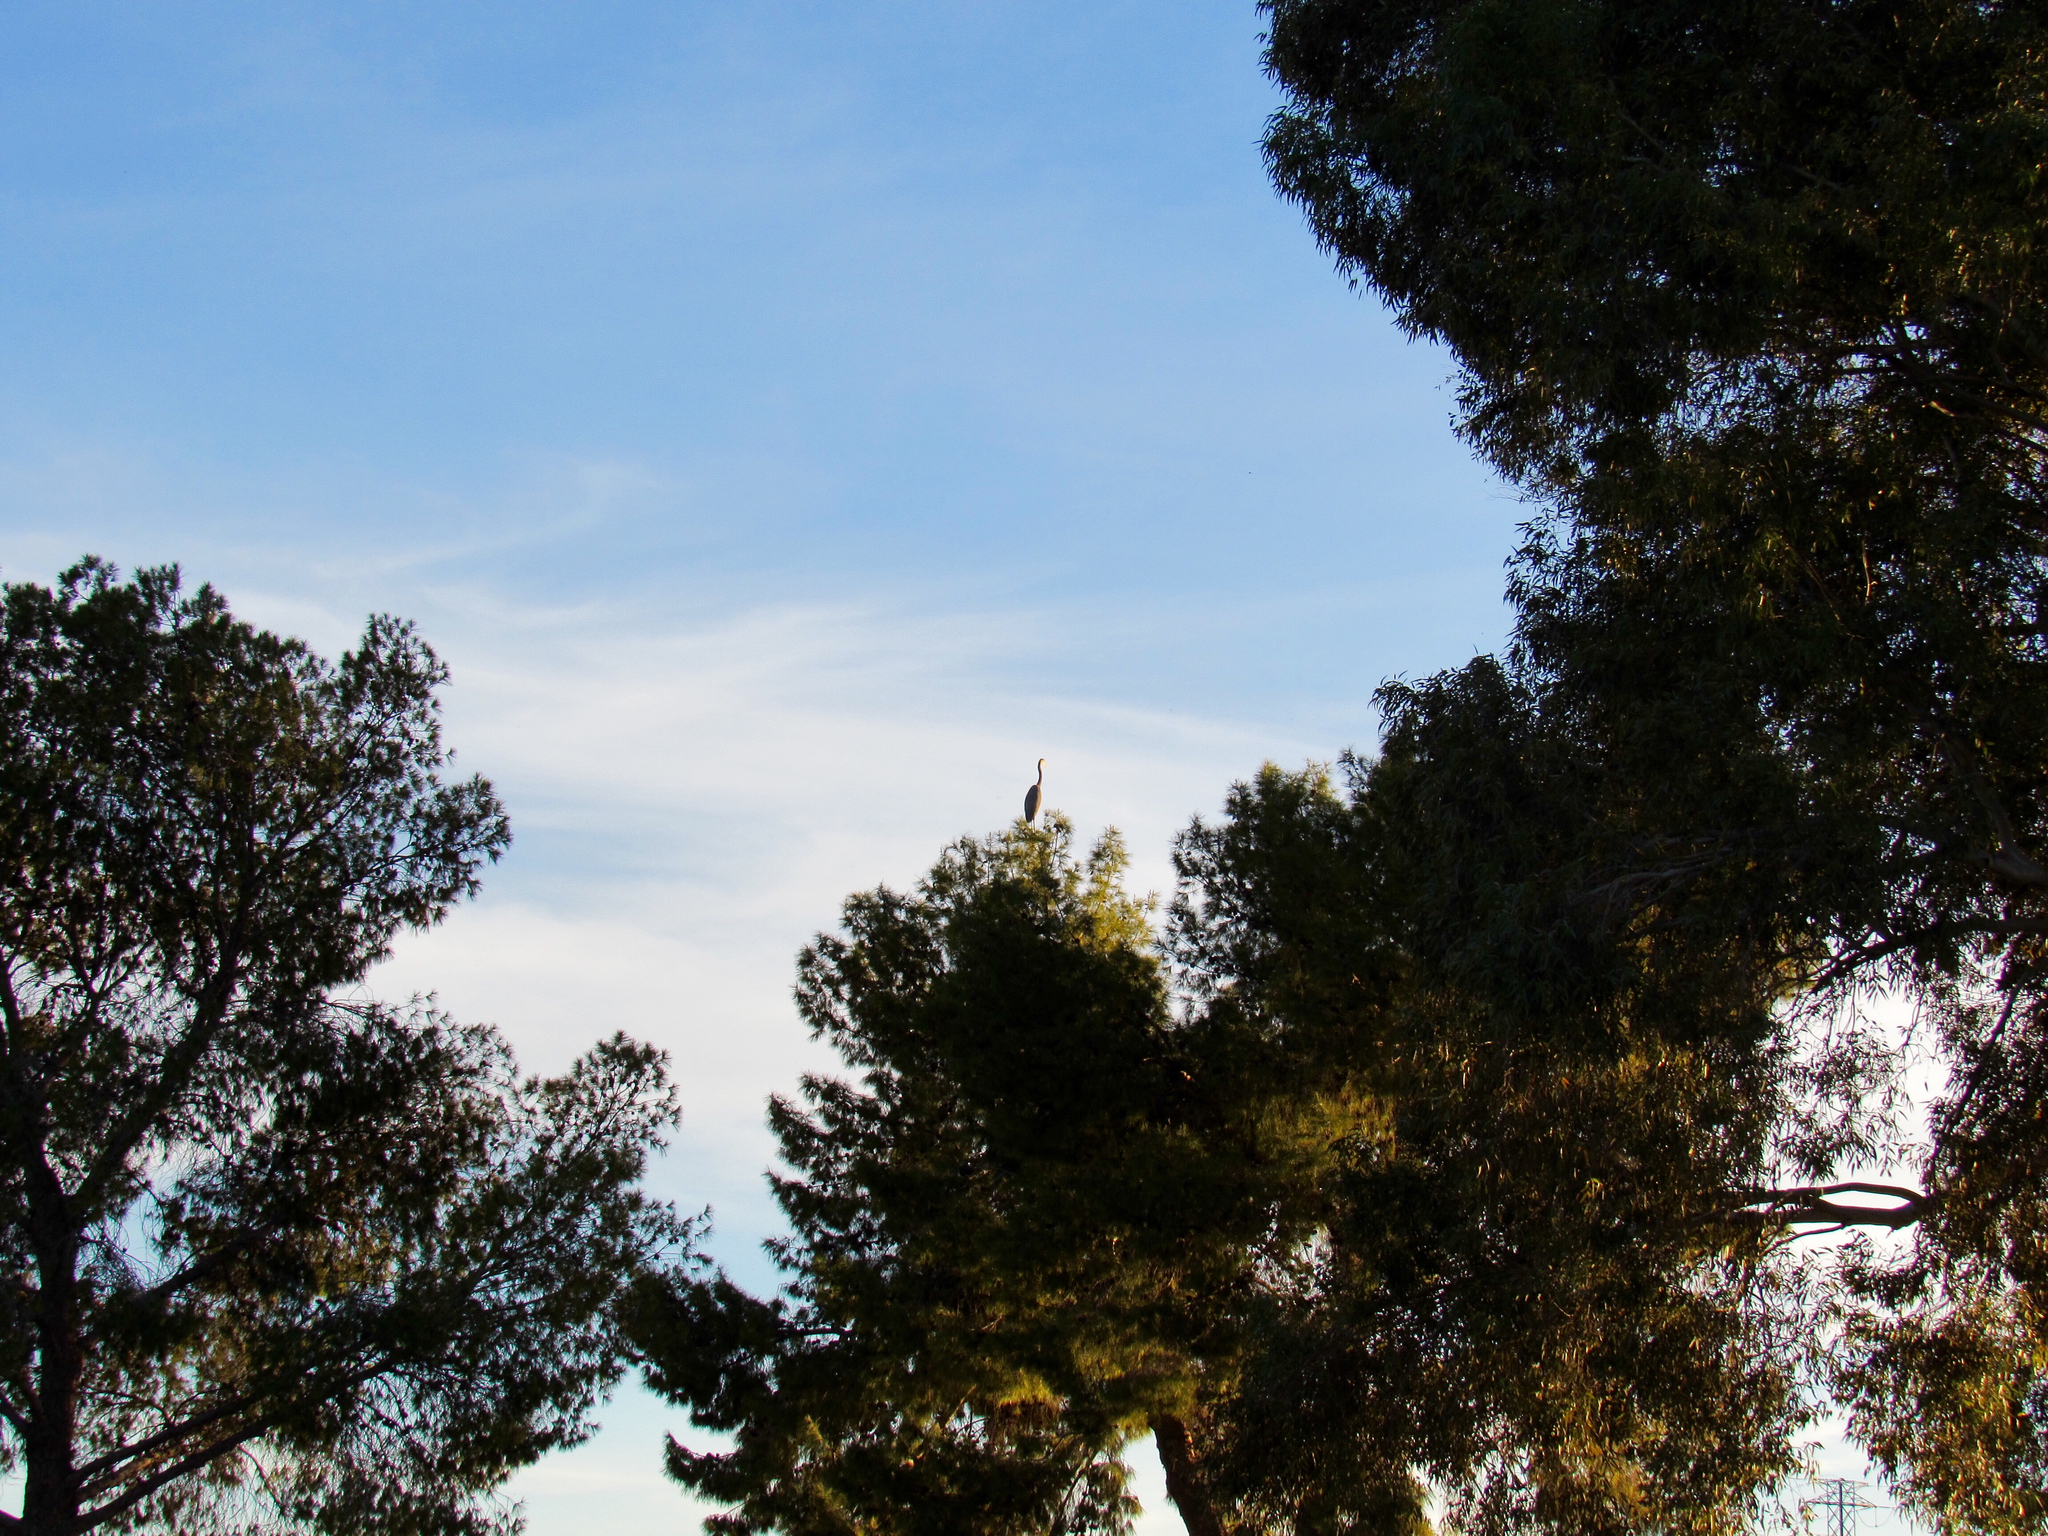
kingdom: Animalia
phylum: Chordata
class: Aves
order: Pelecaniformes
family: Ardeidae
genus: Ardea
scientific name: Ardea herodias
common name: Great blue heron
